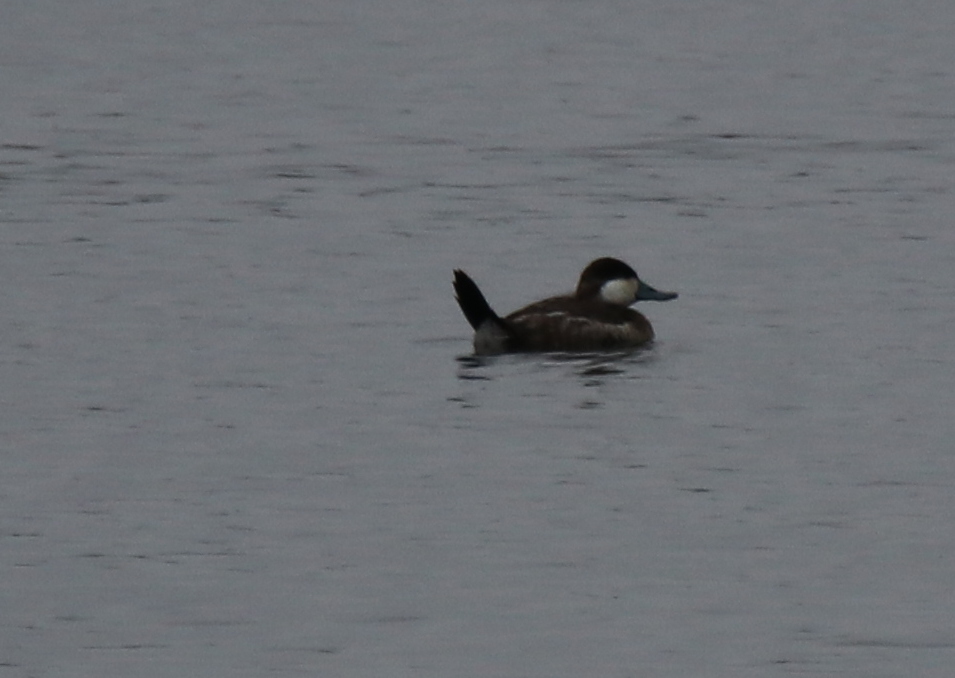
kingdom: Animalia
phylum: Chordata
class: Aves
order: Anseriformes
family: Anatidae
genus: Oxyura
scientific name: Oxyura jamaicensis
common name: Ruddy duck
